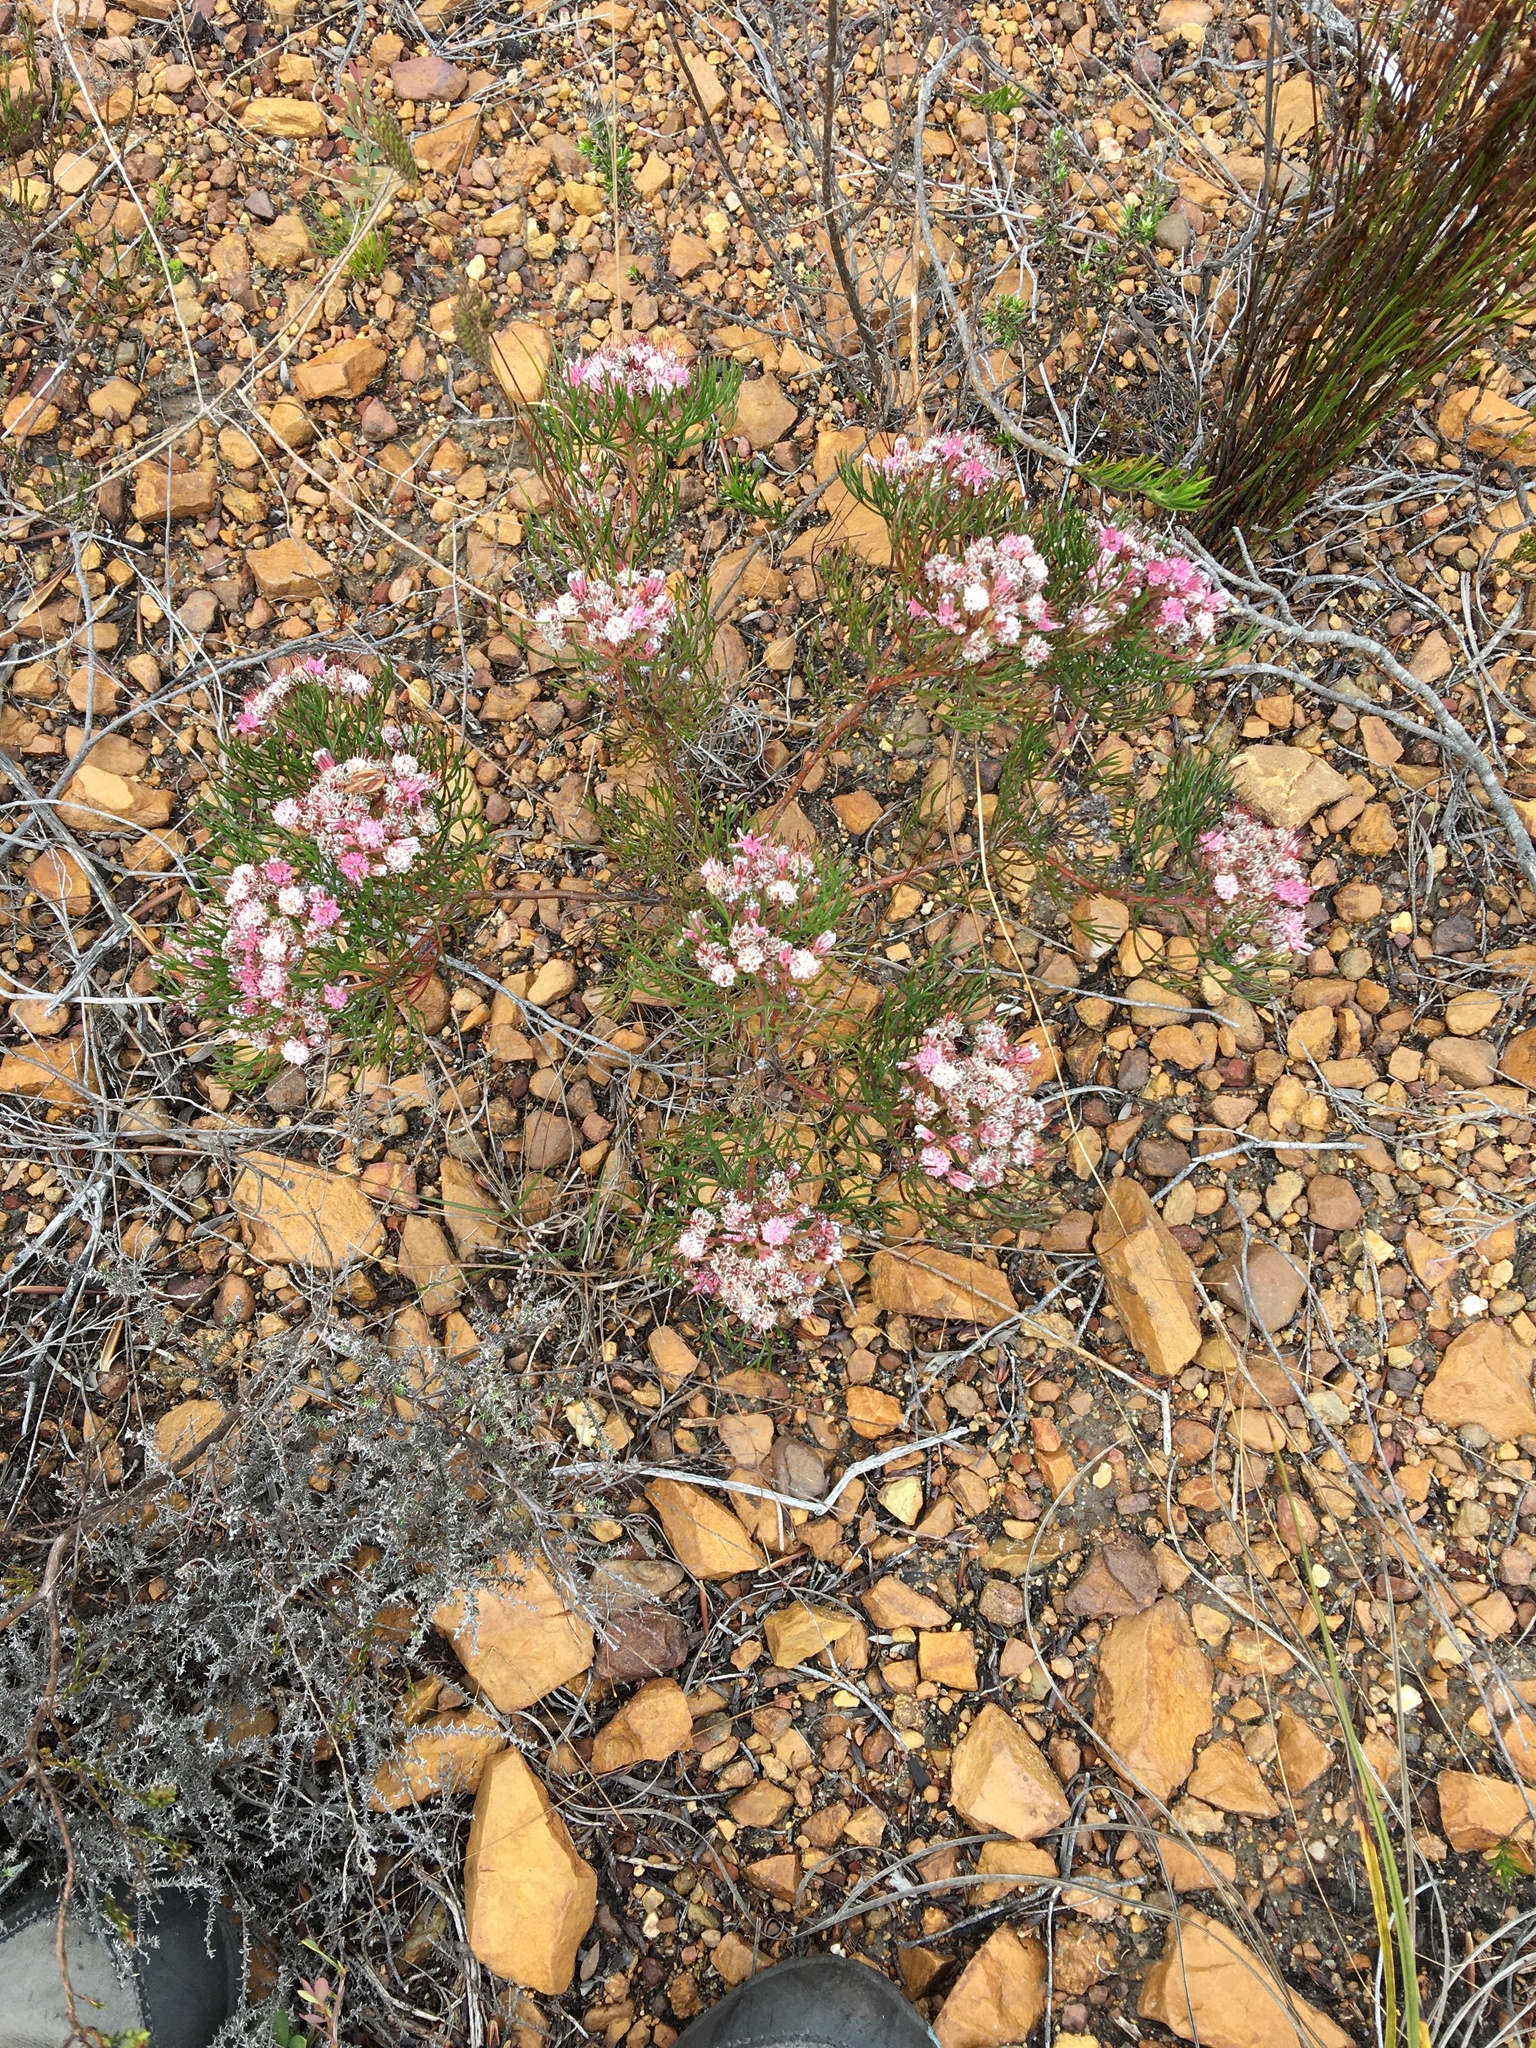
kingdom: Plantae
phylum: Tracheophyta
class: Magnoliopsida
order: Proteales
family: Proteaceae
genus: Serruria
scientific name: Serruria fasciflora
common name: Common pin spiderhead
